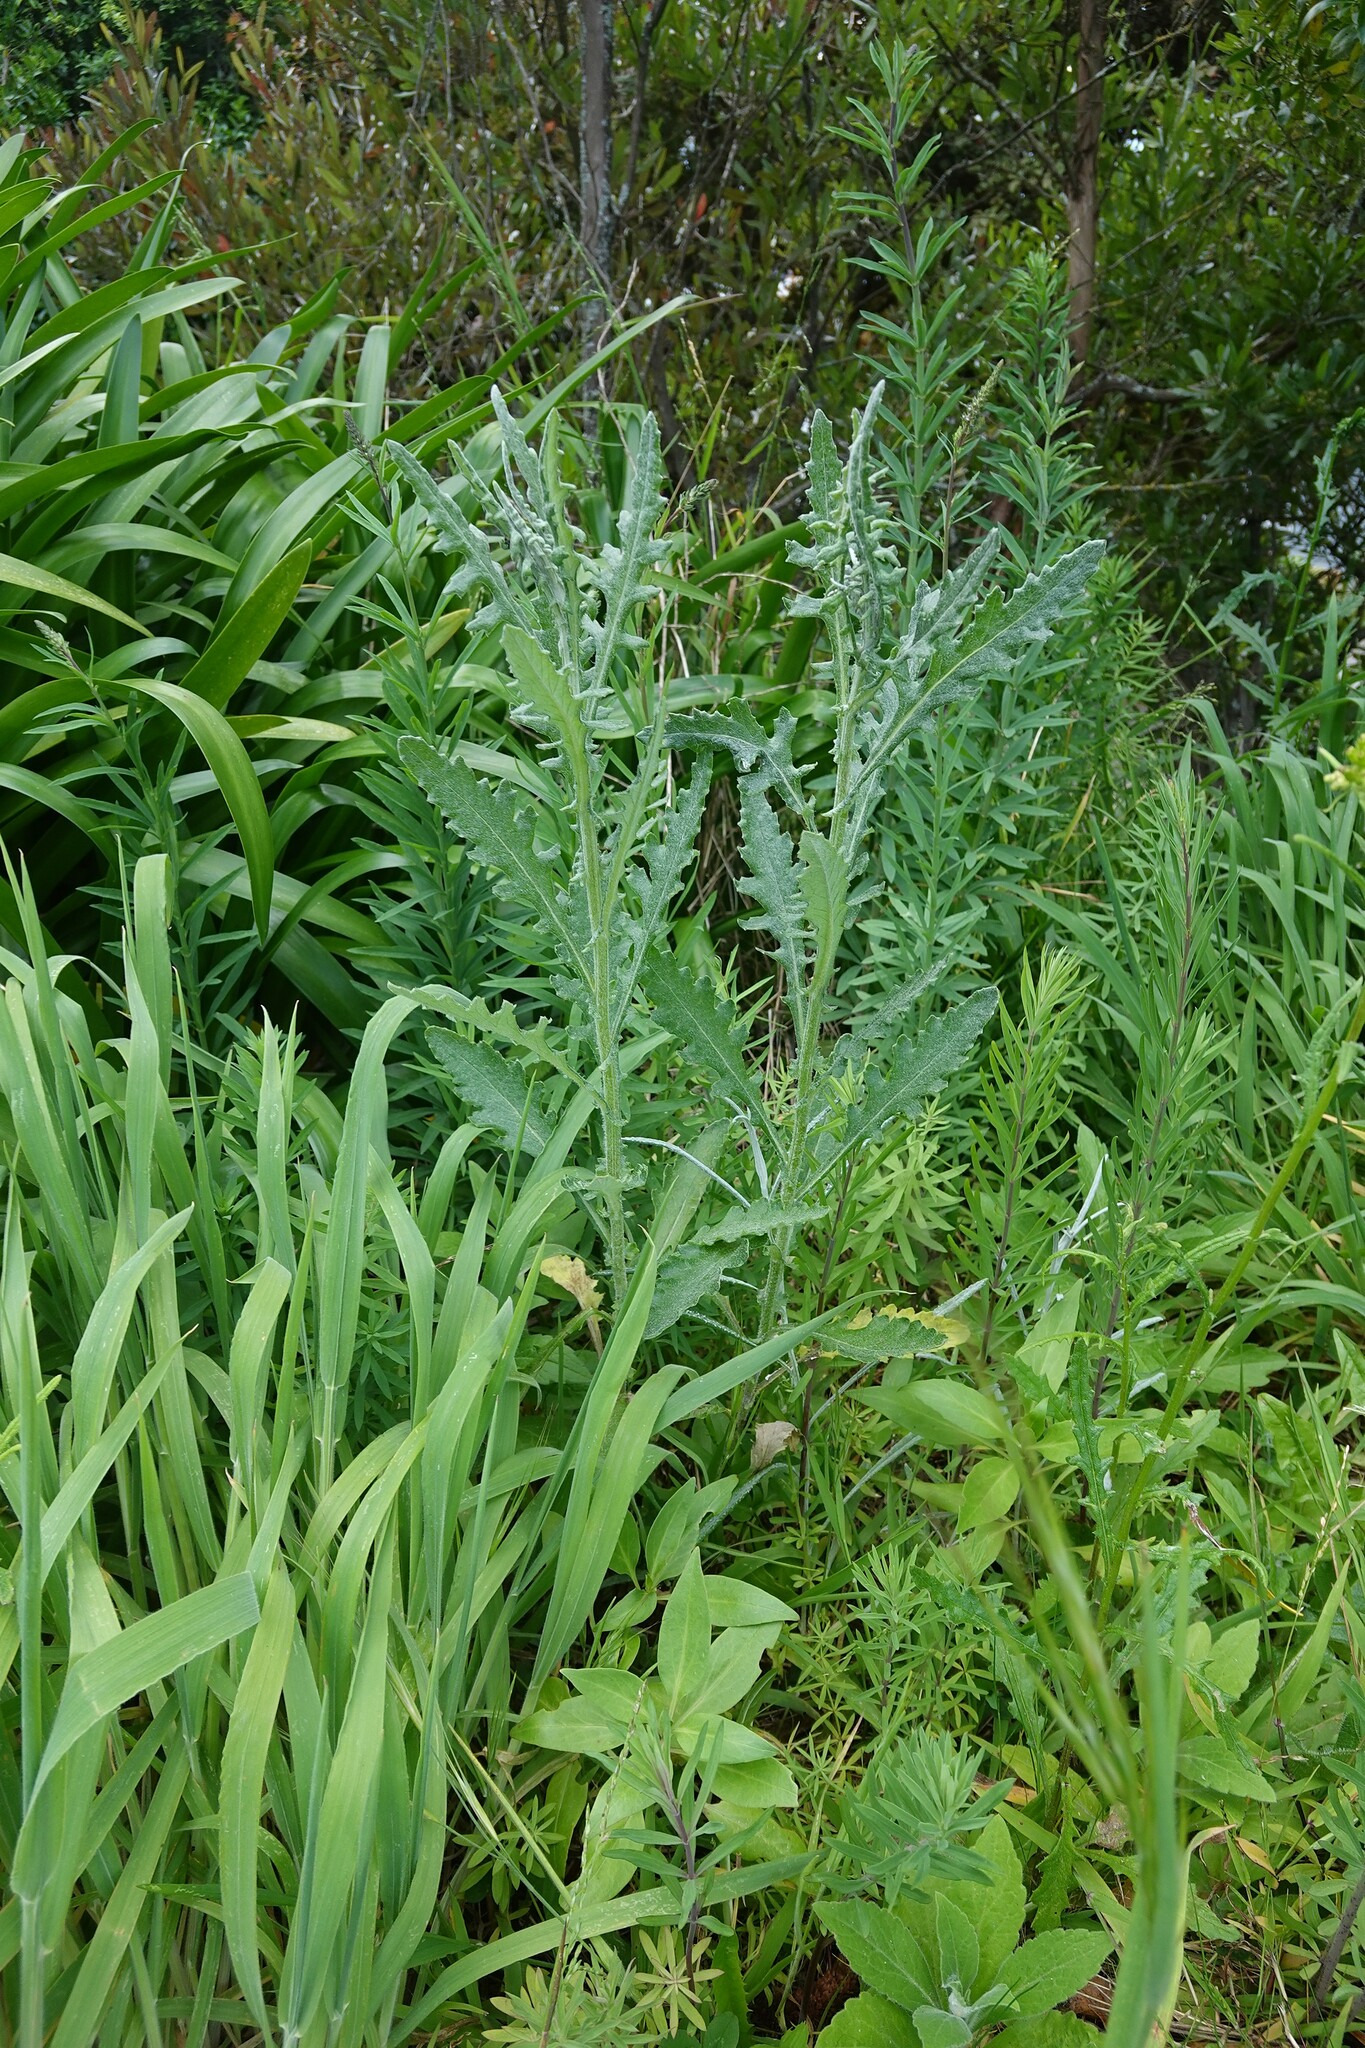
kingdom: Plantae
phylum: Tracheophyta
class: Magnoliopsida
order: Asterales
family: Asteraceae
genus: Senecio
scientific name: Senecio glomeratus
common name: Cutleaf burnweed
